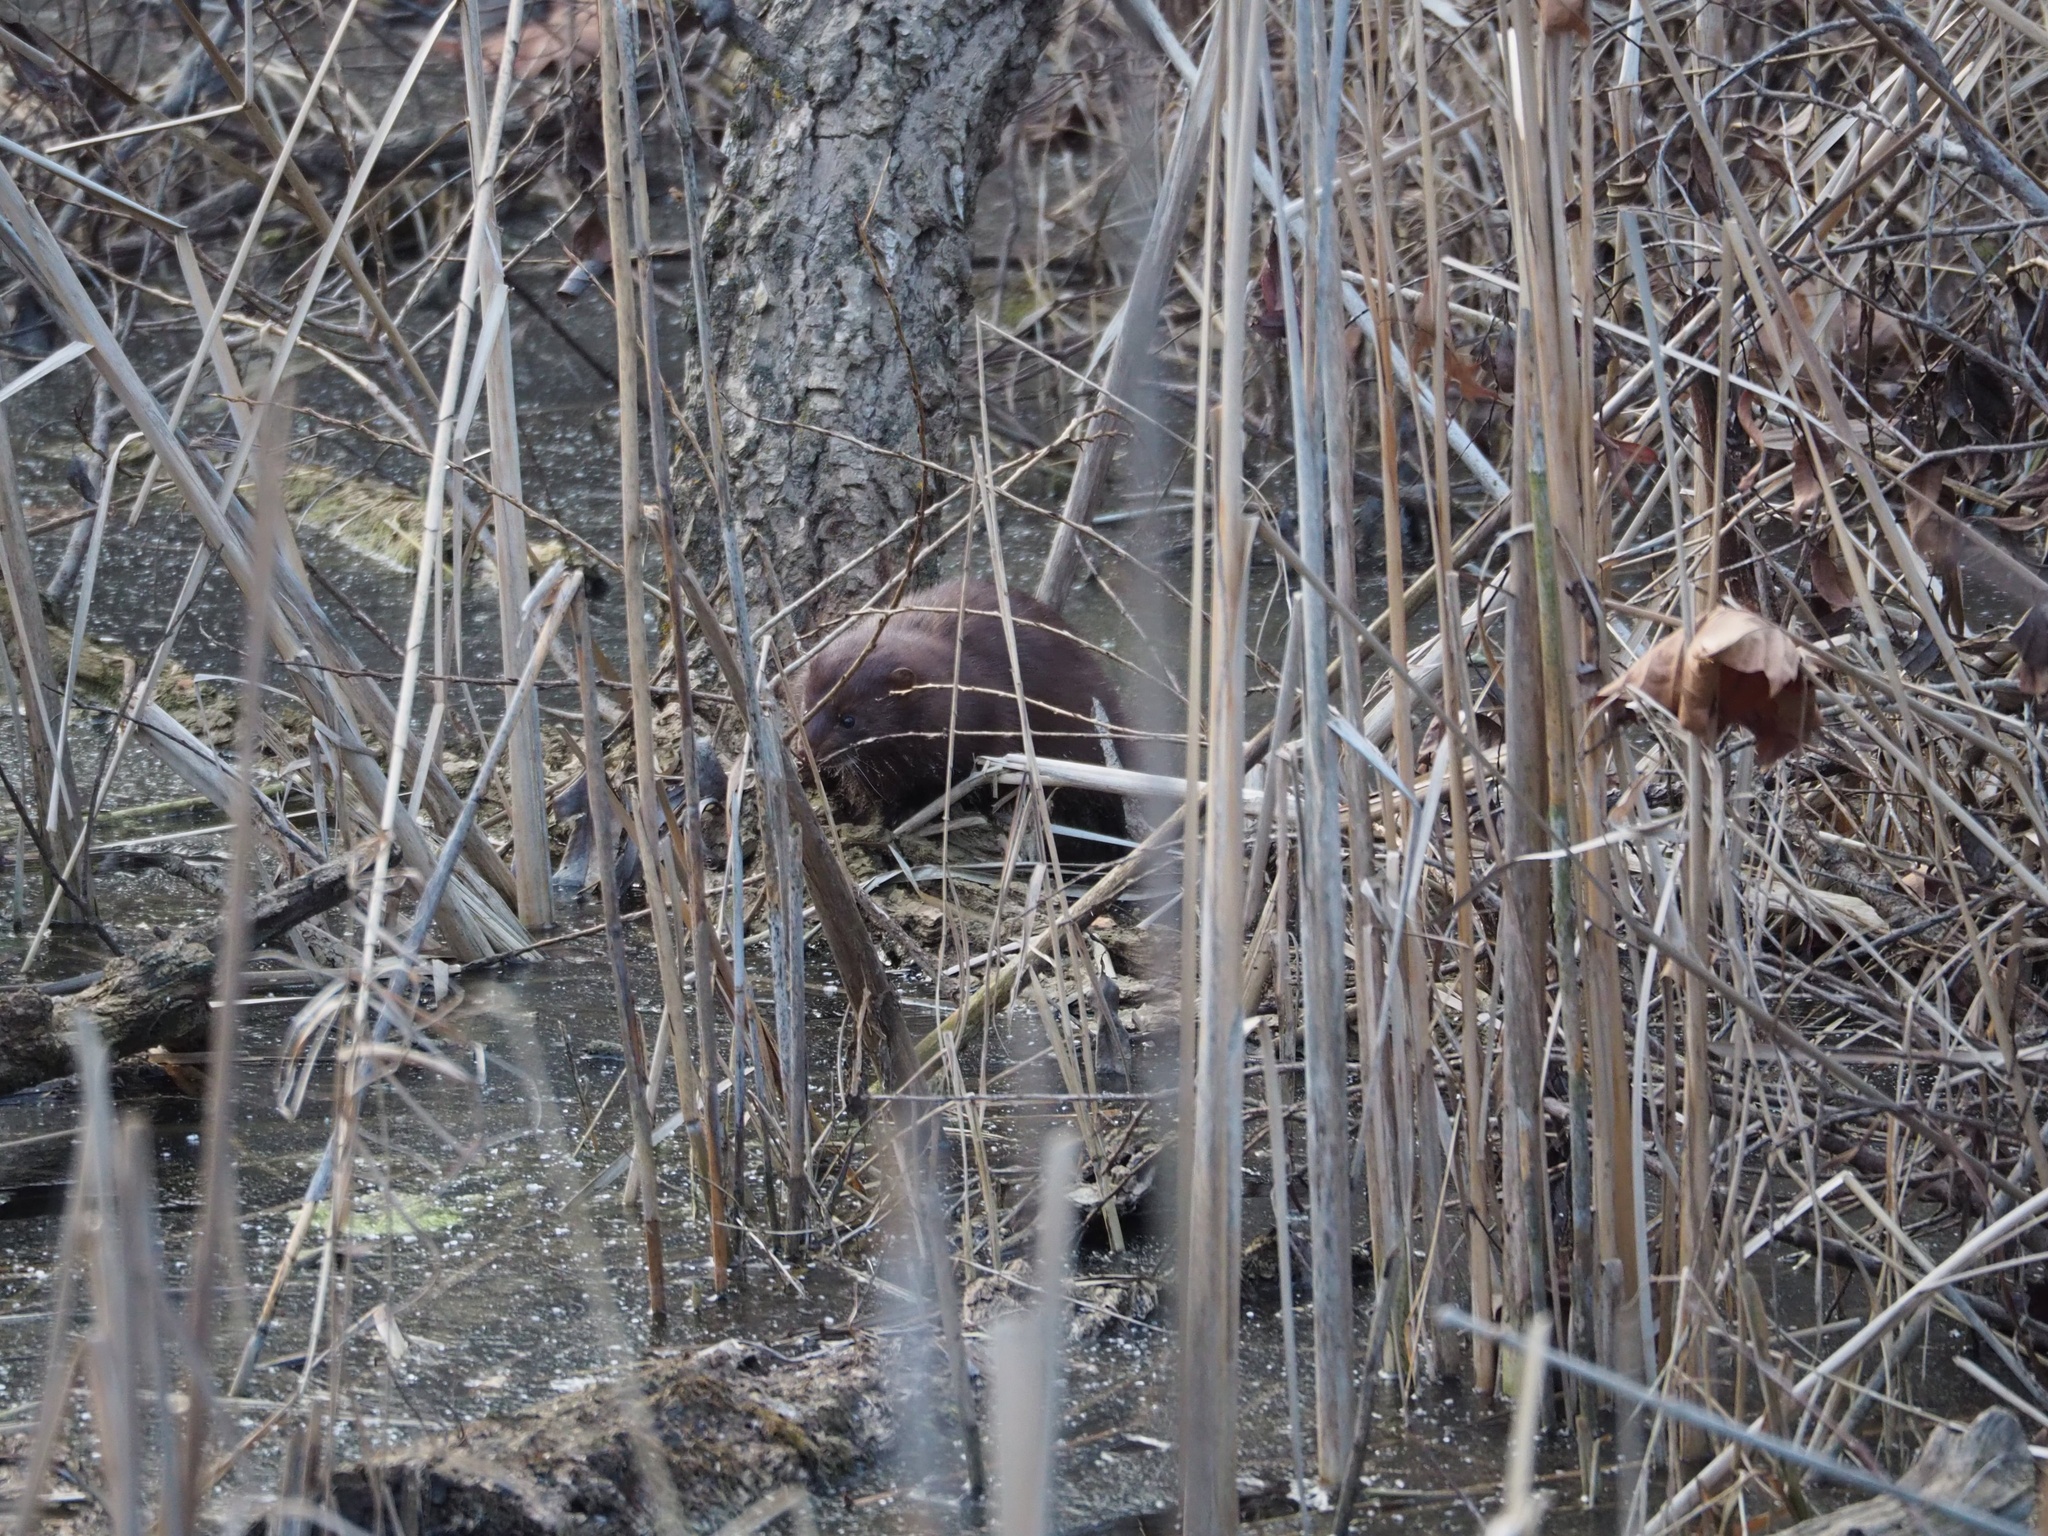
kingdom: Animalia
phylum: Chordata
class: Mammalia
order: Carnivora
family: Mustelidae
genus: Mustela
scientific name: Mustela
